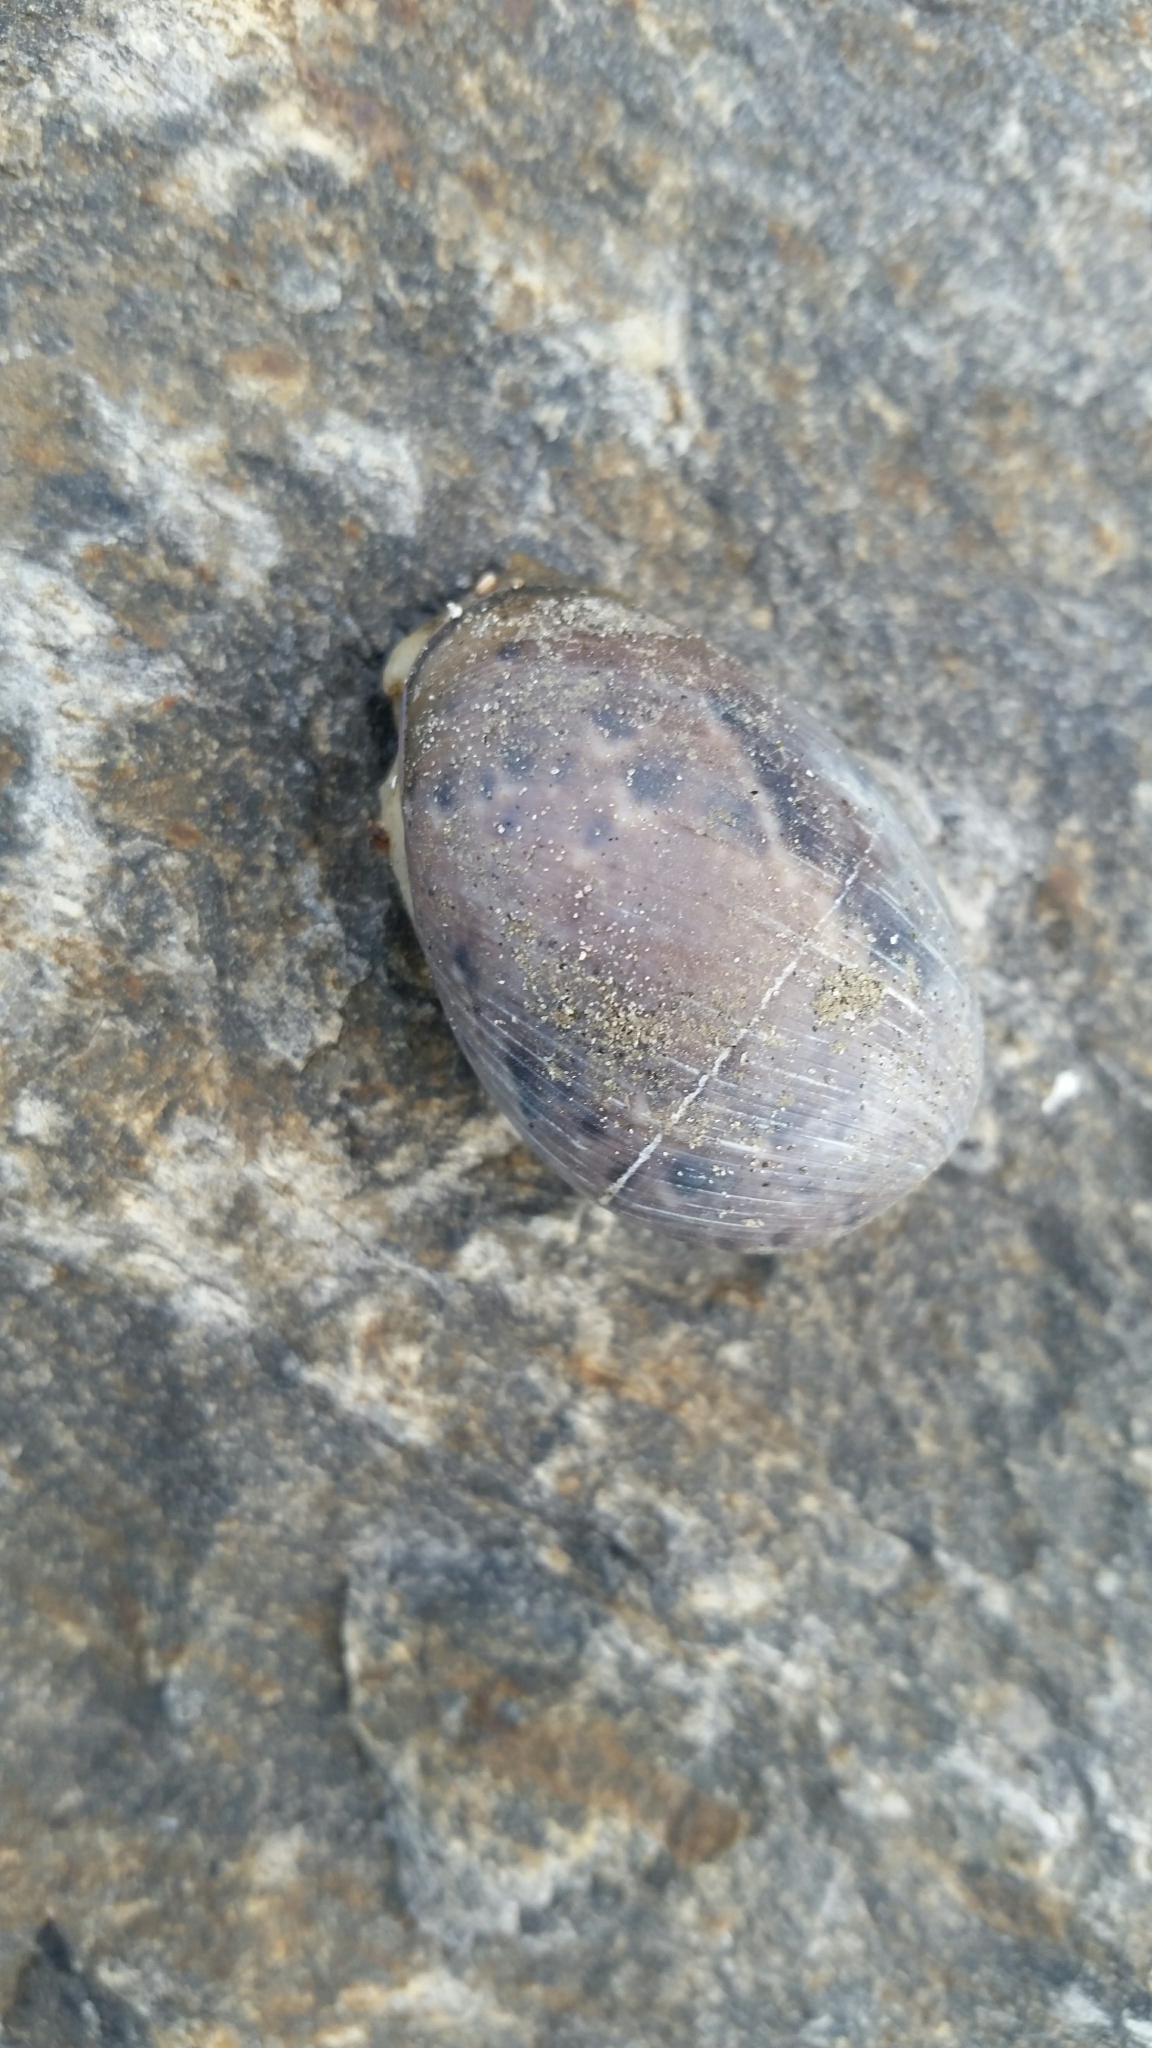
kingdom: Animalia
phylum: Mollusca
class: Gastropoda
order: Cephalaspidea
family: Bullidae
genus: Bulla
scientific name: Bulla gouldiana
